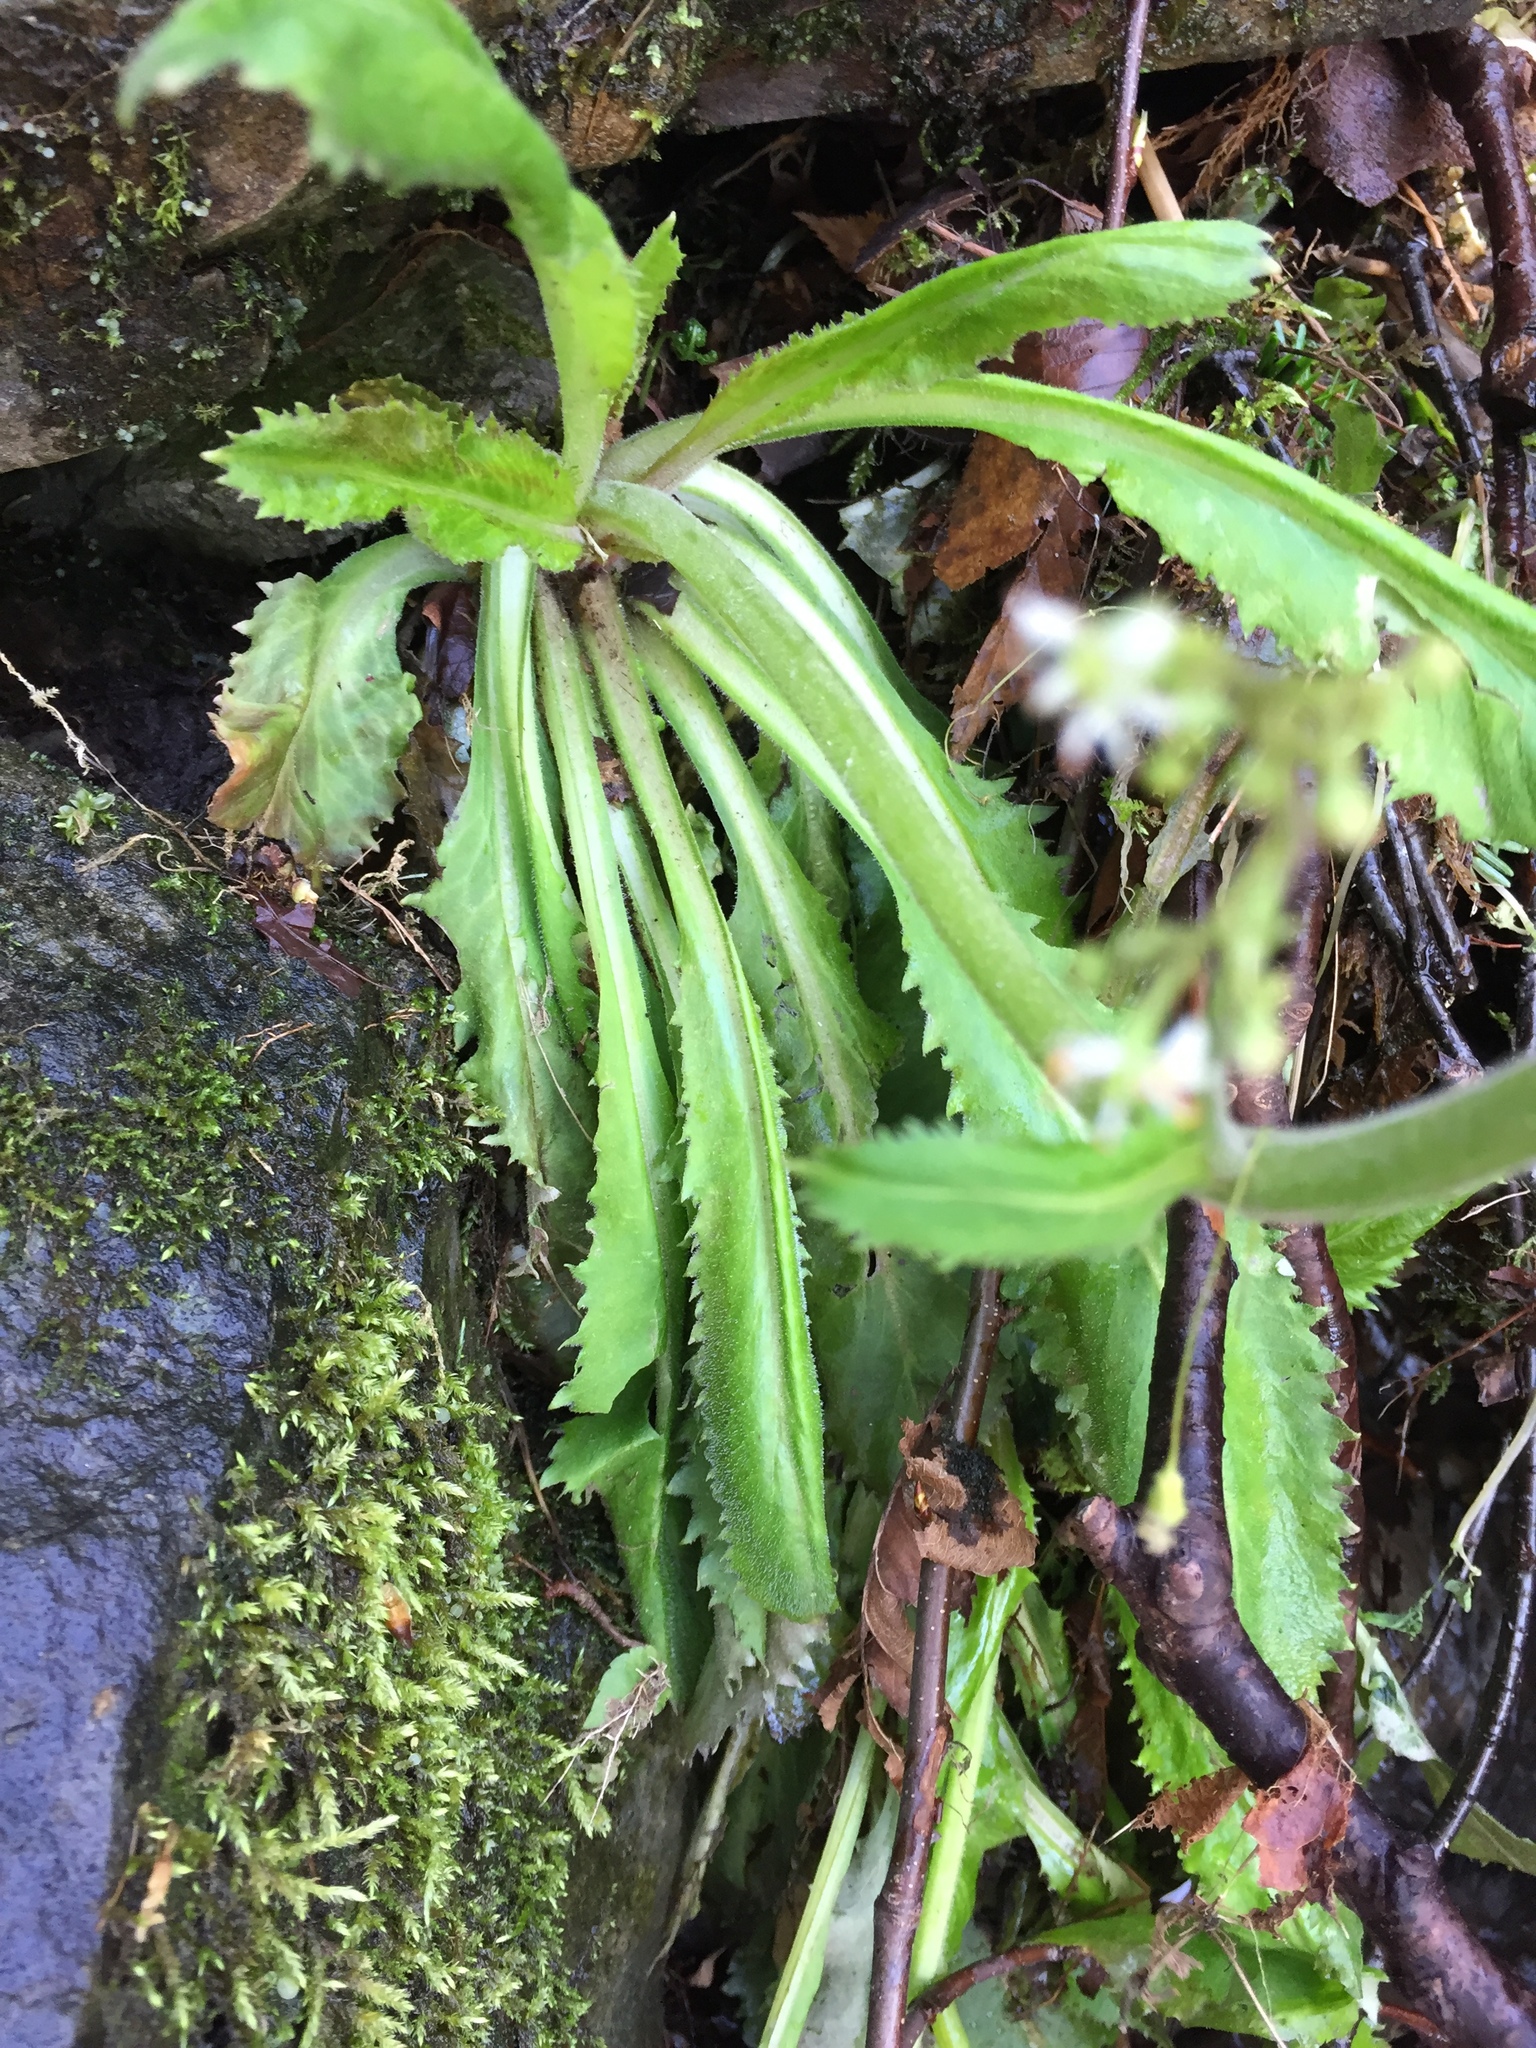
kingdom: Plantae
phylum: Tracheophyta
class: Magnoliopsida
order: Saxifragales
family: Saxifragaceae
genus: Micranthes
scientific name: Micranthes micranthidifolia
